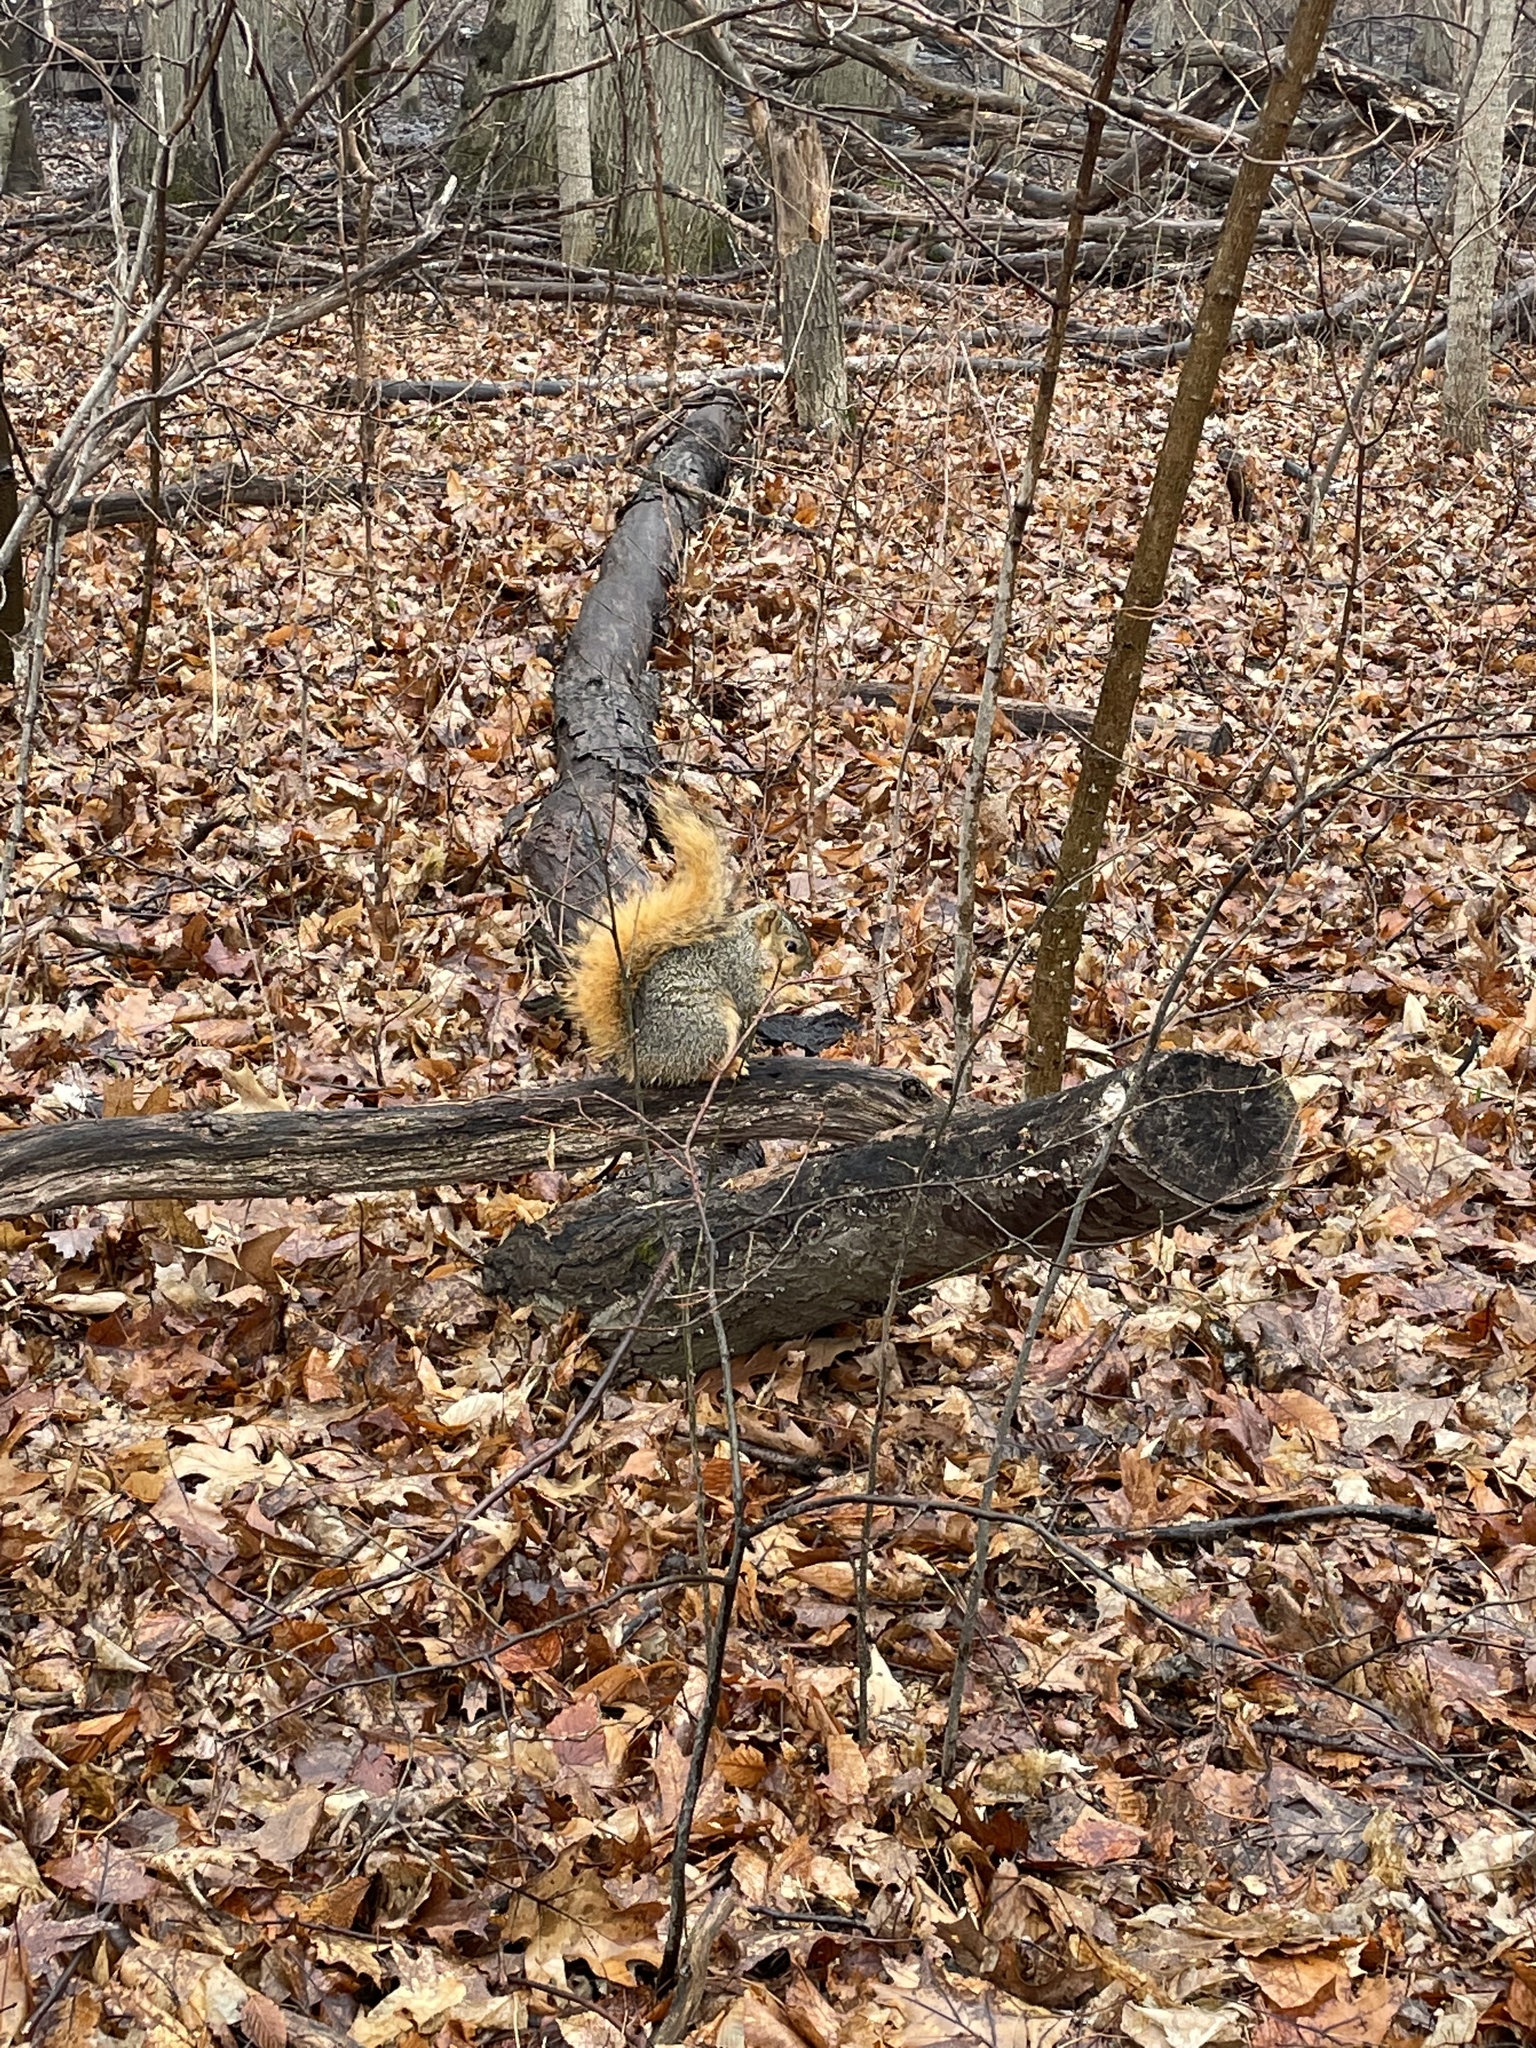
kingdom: Animalia
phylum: Chordata
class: Mammalia
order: Rodentia
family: Sciuridae
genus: Sciurus
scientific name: Sciurus niger
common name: Fox squirrel
